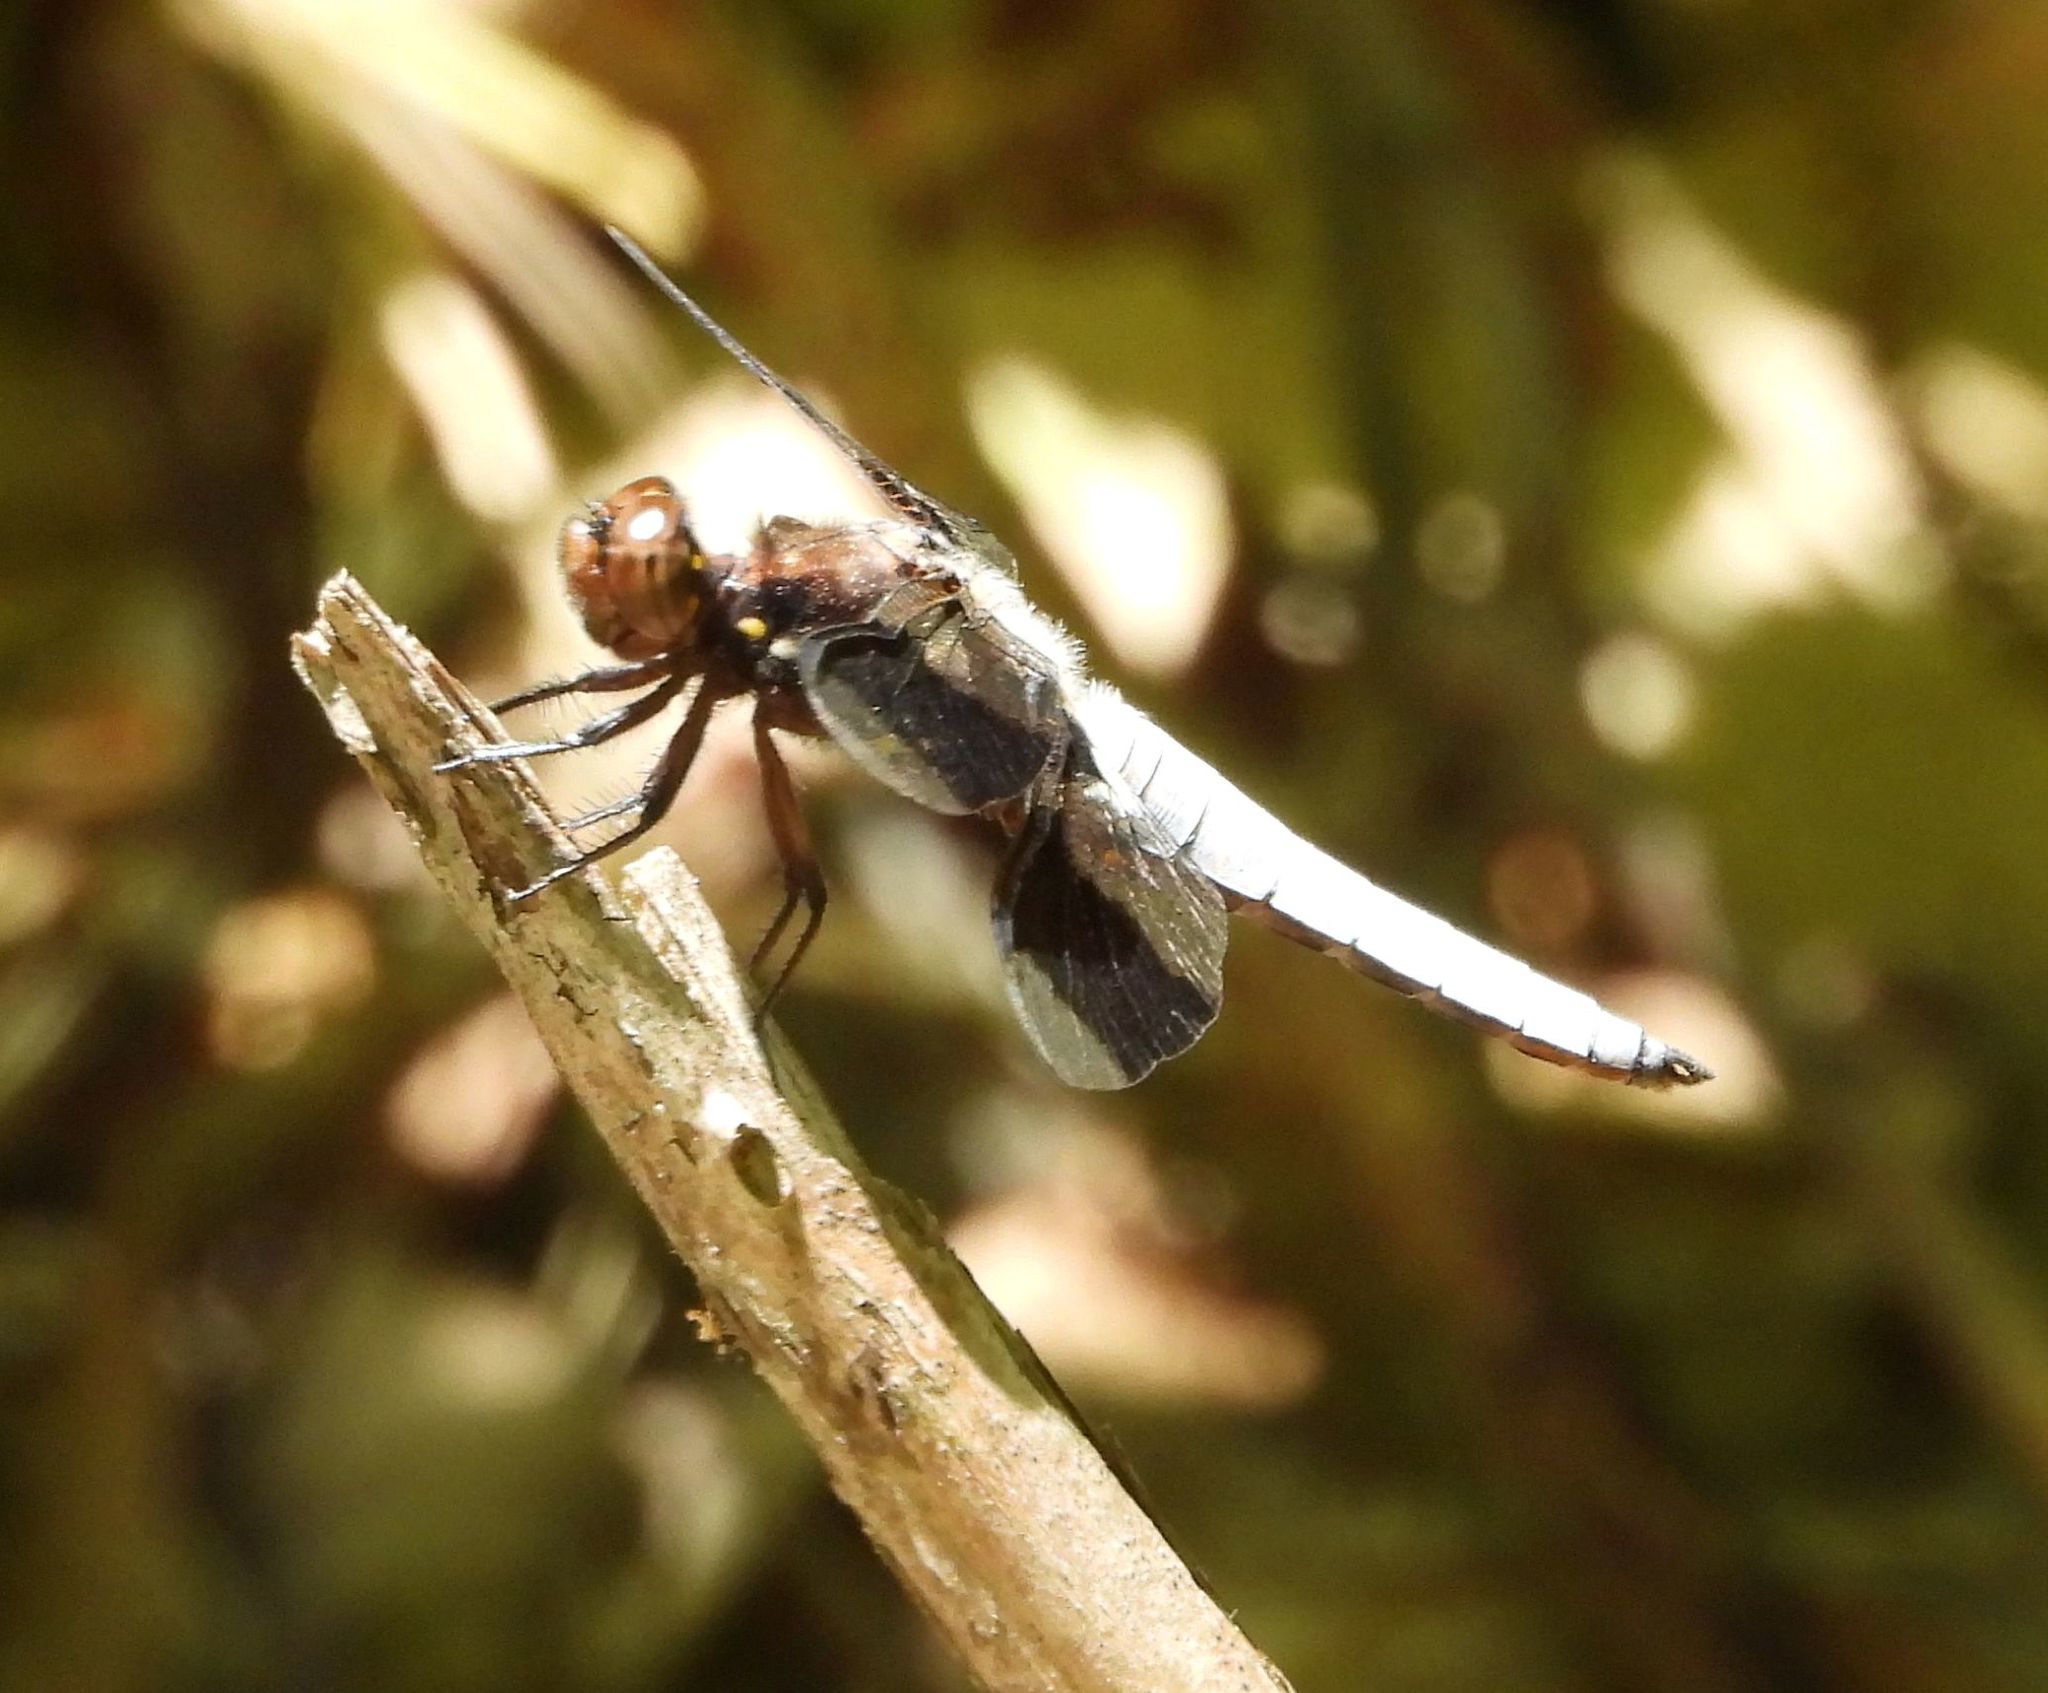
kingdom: Animalia
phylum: Arthropoda
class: Insecta
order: Odonata
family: Libellulidae
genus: Plathemis
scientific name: Plathemis lydia
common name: Common whitetail
